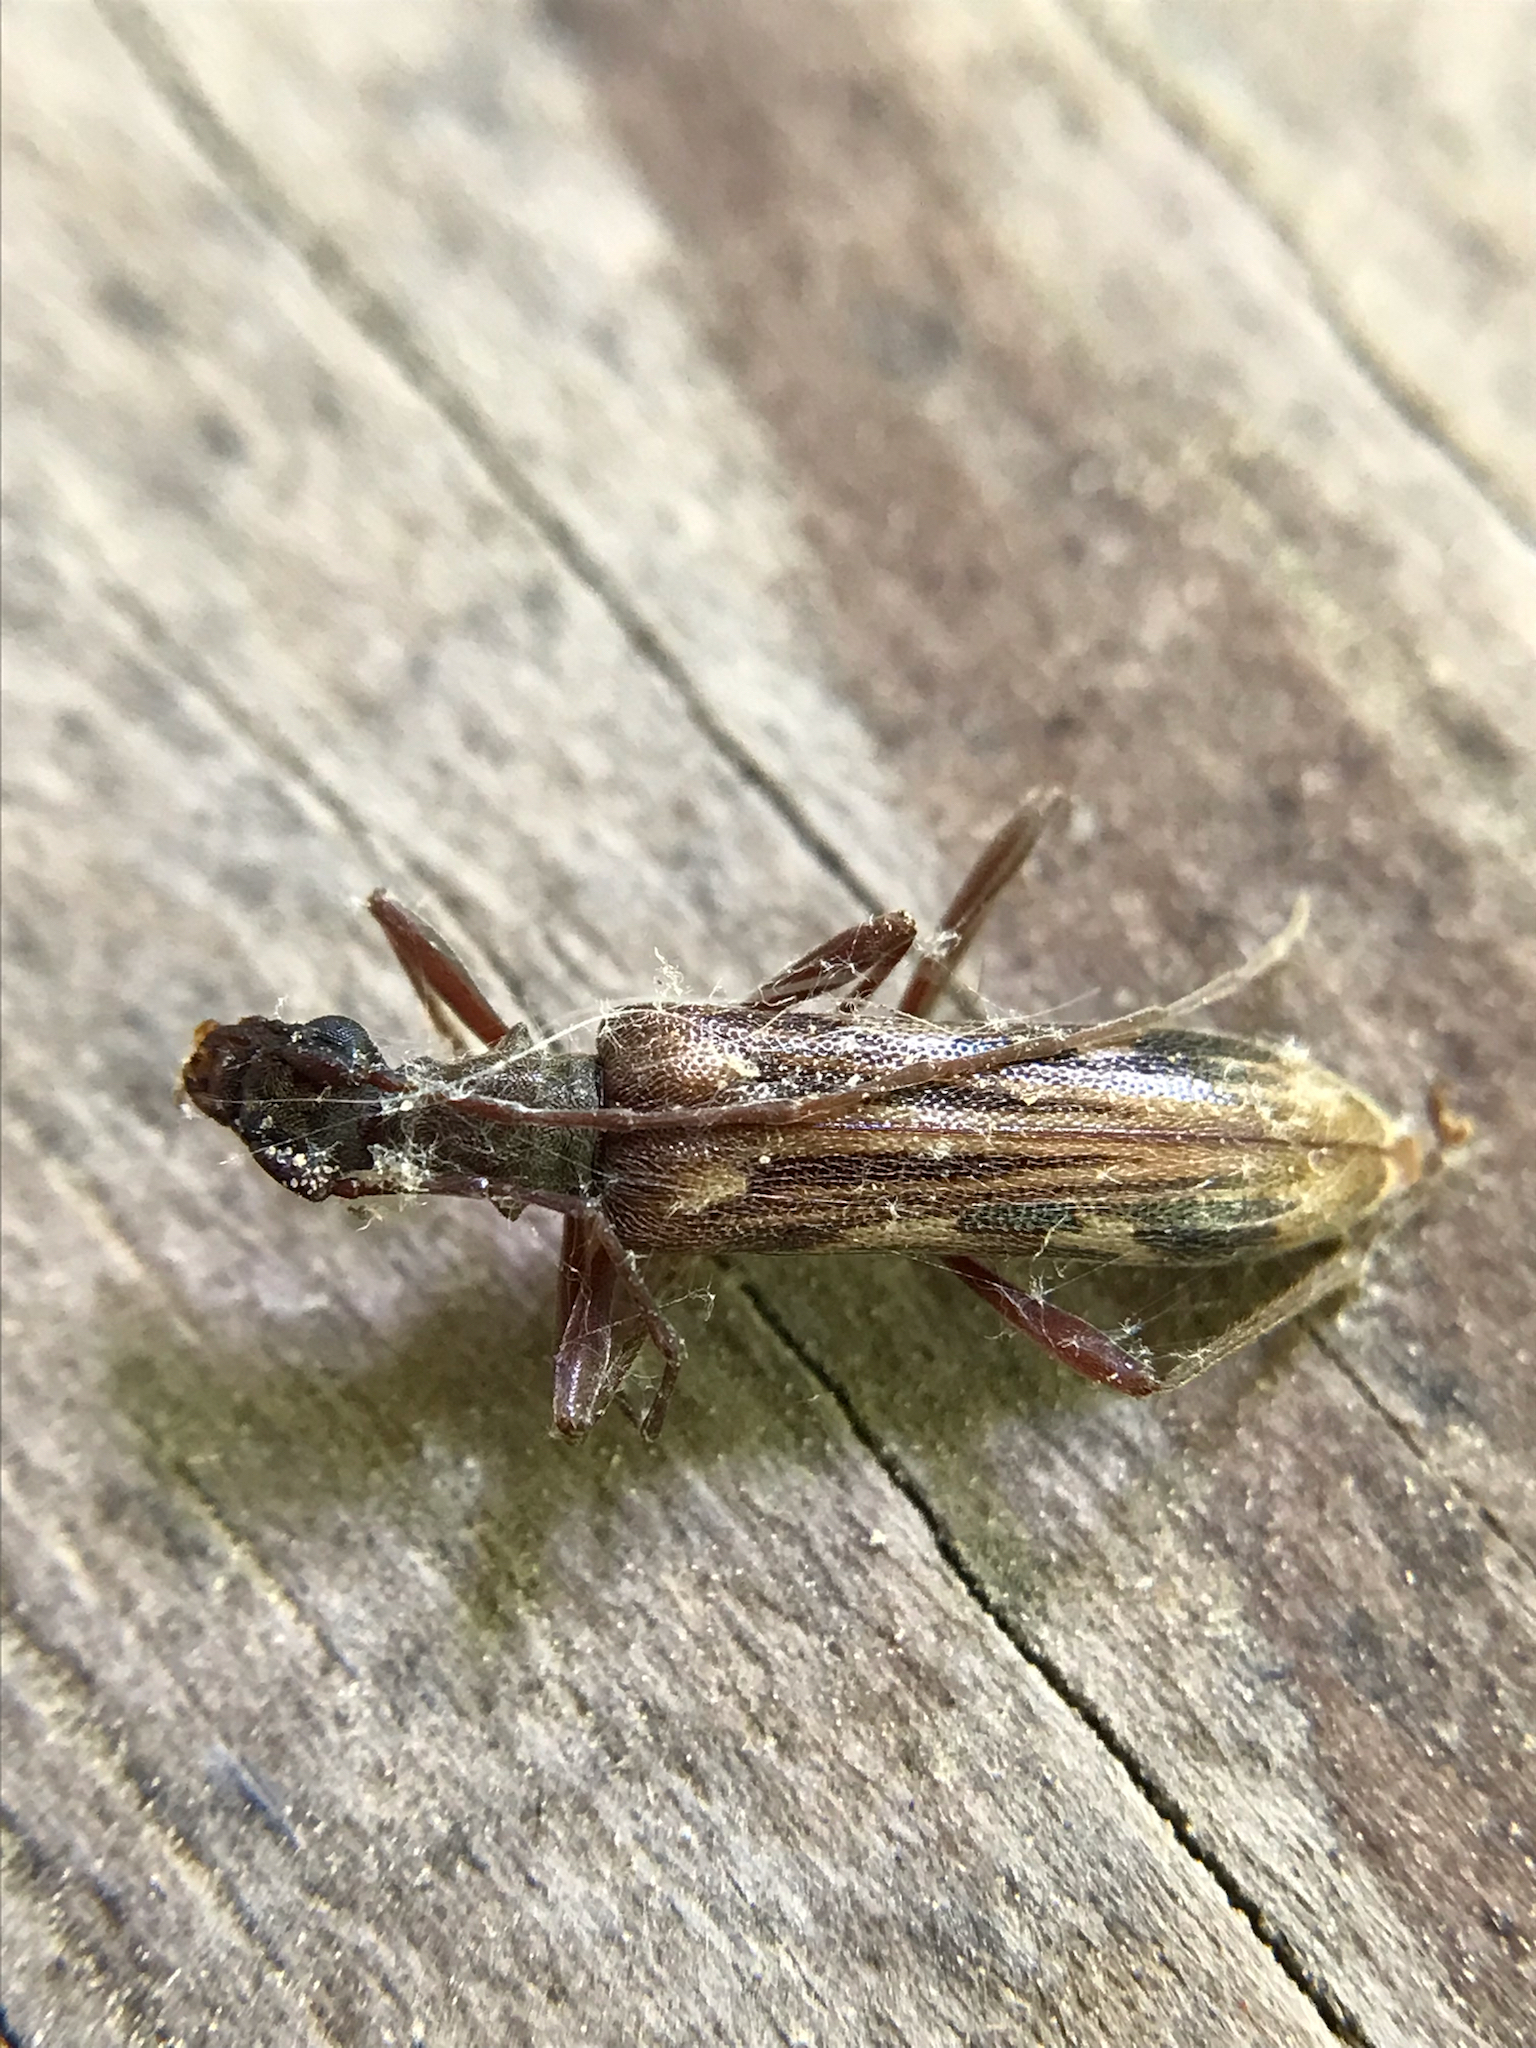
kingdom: Animalia
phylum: Arthropoda
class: Insecta
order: Coleoptera
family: Cerambycidae
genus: Leptorhabdium
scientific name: Leptorhabdium pictum
